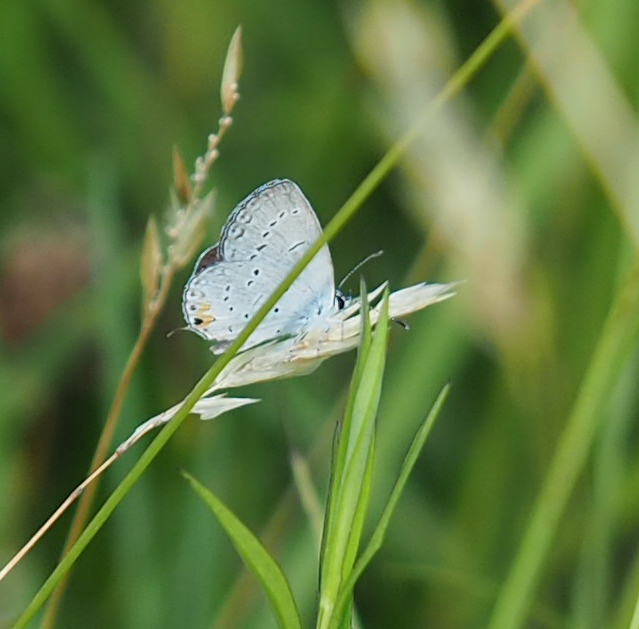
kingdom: Animalia
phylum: Arthropoda
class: Insecta
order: Lepidoptera
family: Lycaenidae
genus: Elkalyce
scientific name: Elkalyce comyntas
